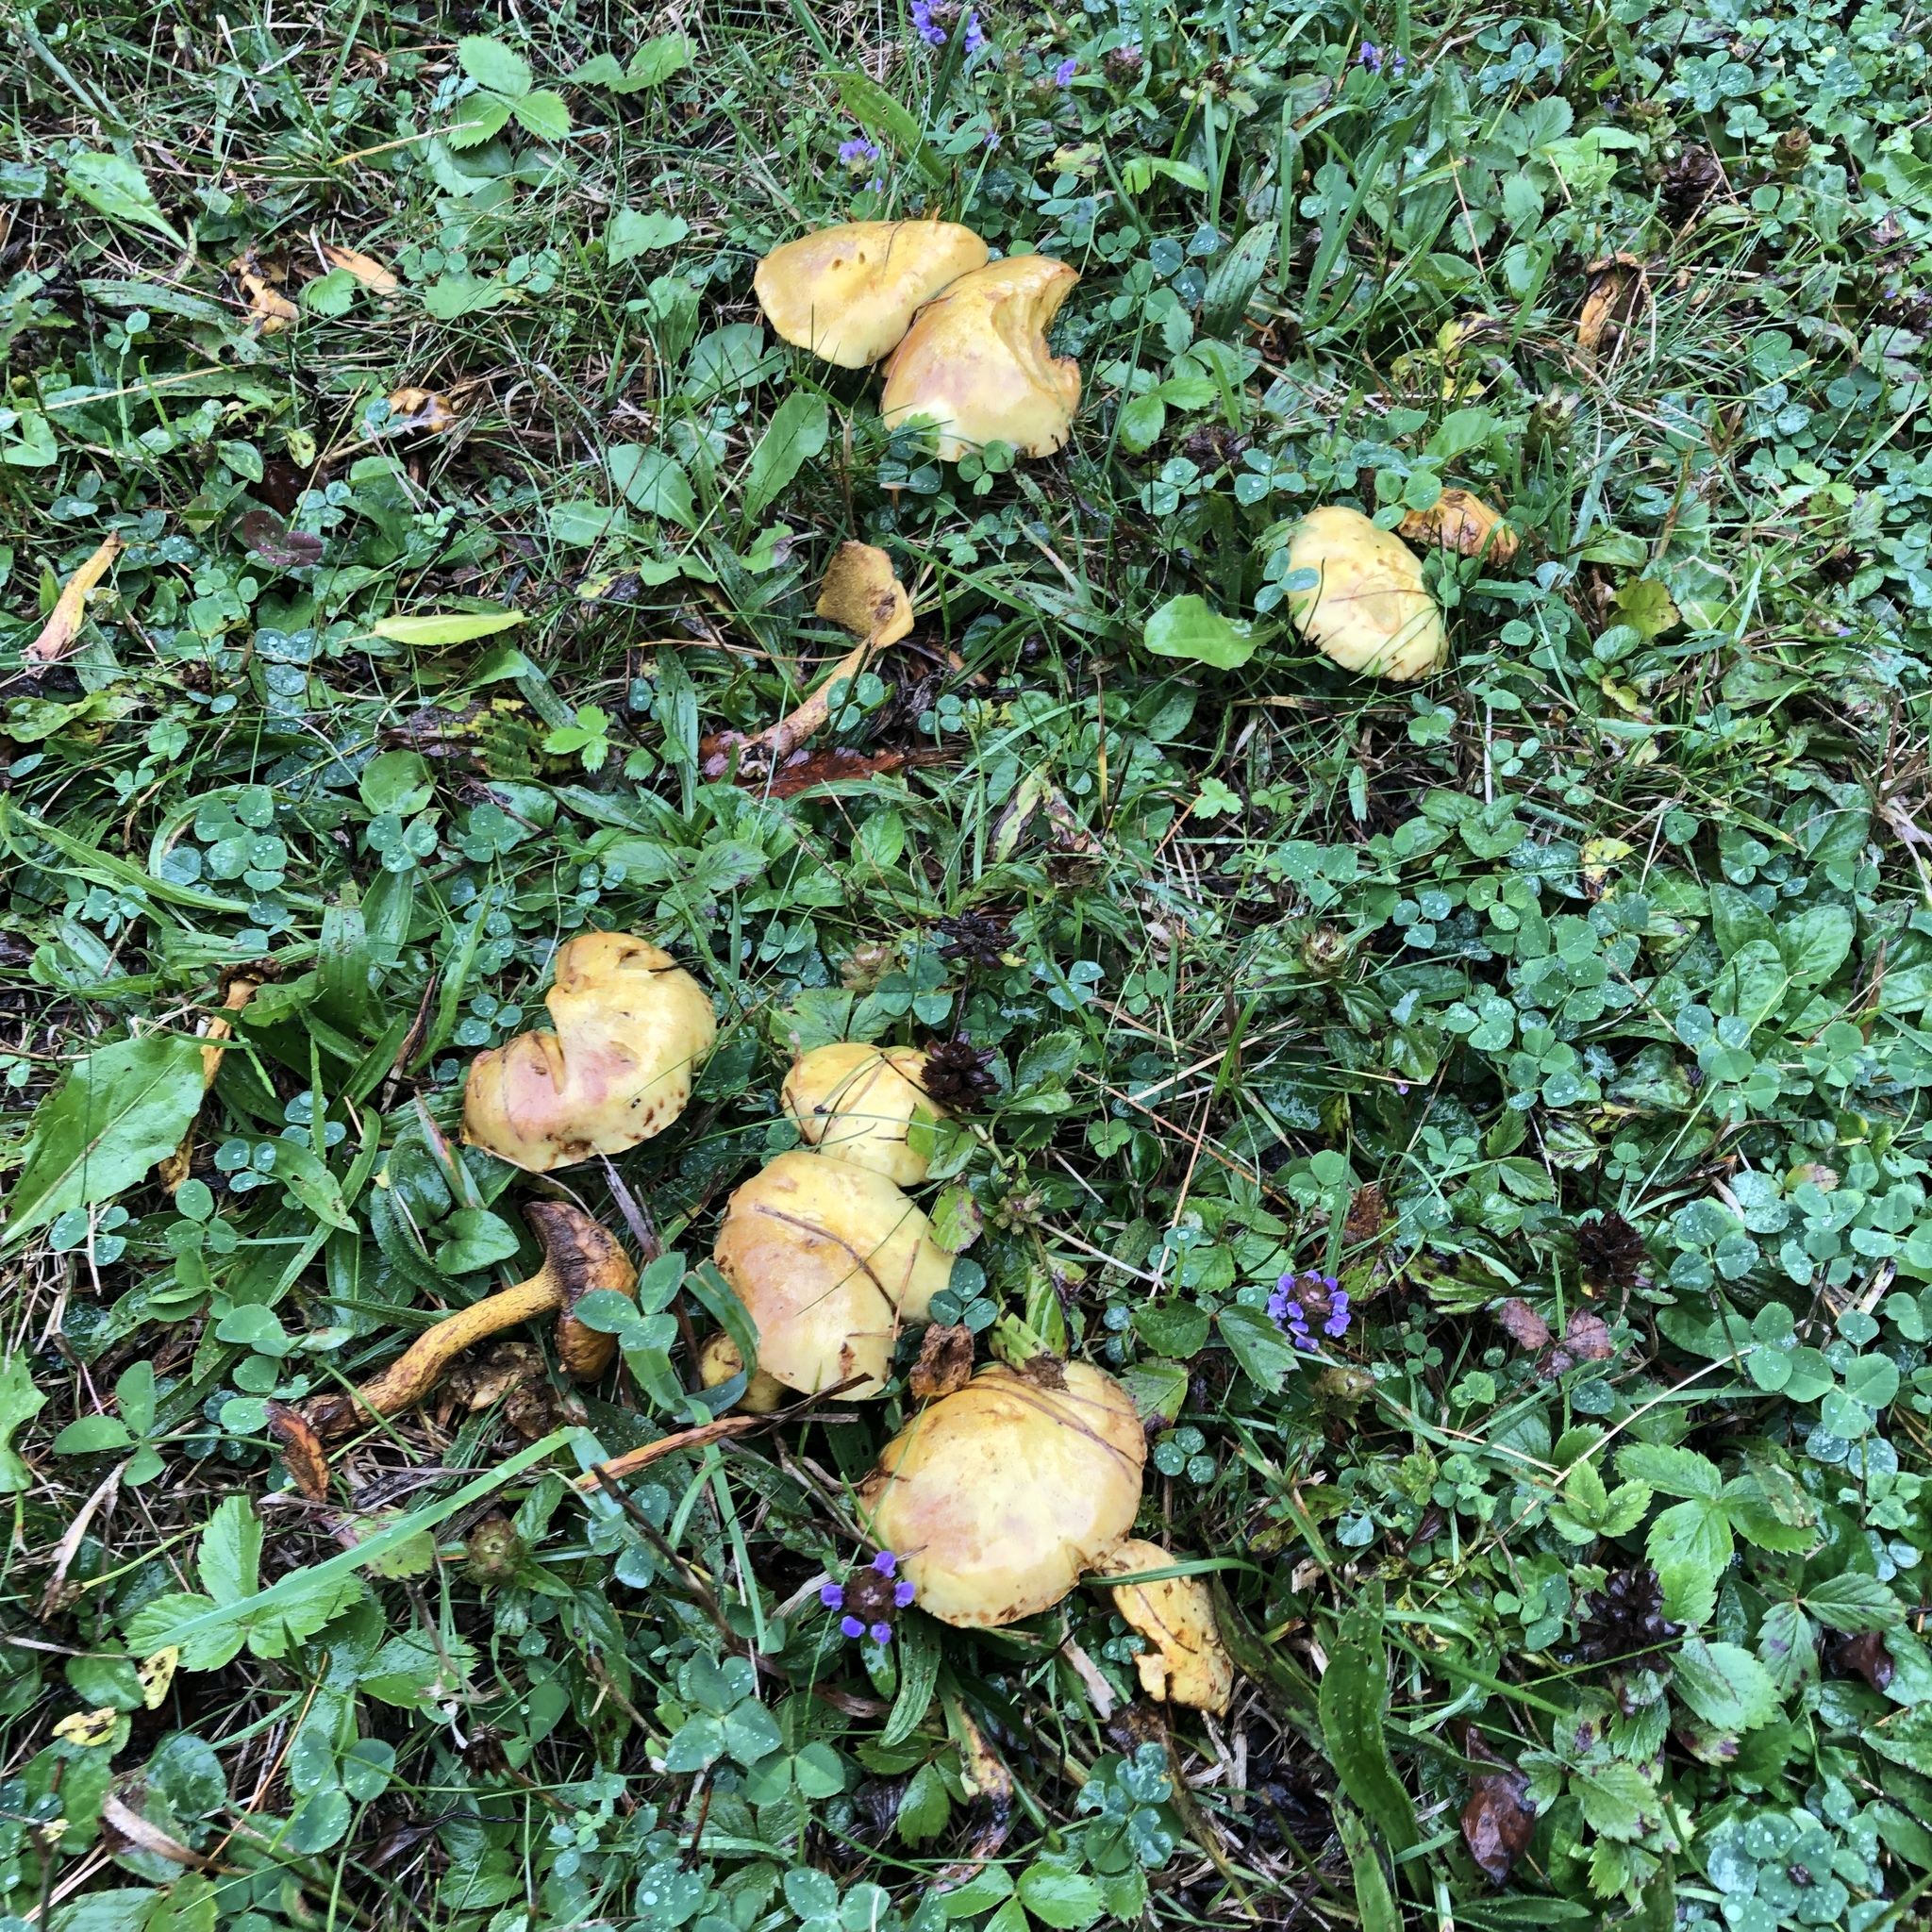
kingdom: Fungi
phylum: Basidiomycota
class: Agaricomycetes
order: Boletales
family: Suillaceae
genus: Suillus
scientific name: Suillus americanus
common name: Chicken fat mushroom
